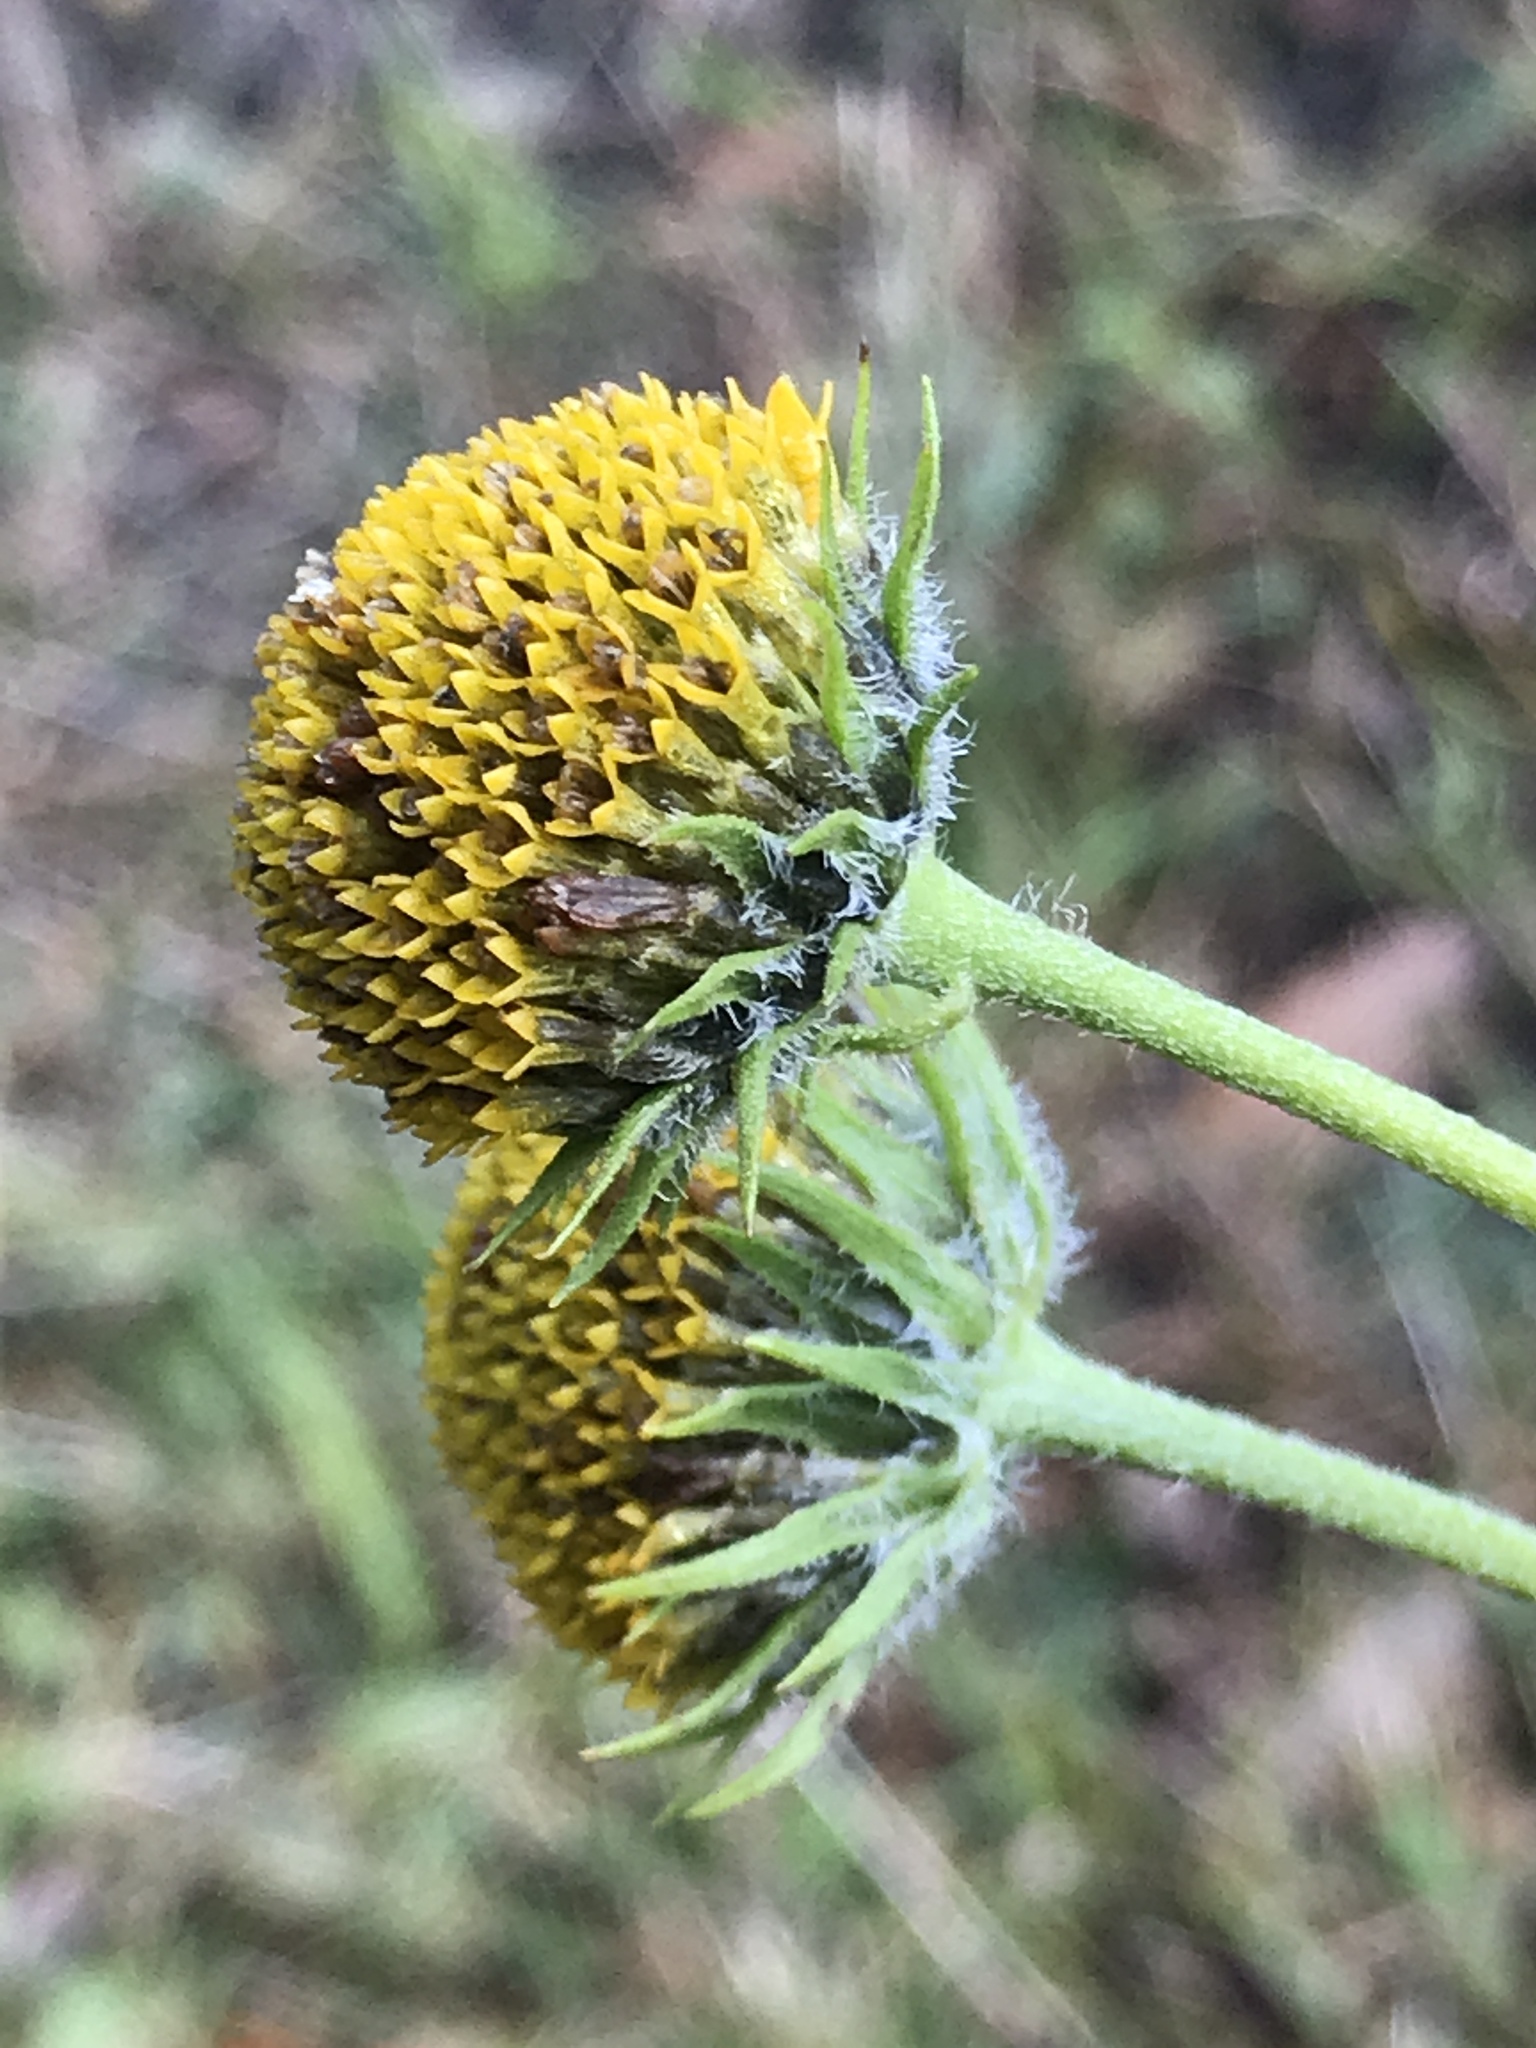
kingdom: Plantae
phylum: Tracheophyta
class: Magnoliopsida
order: Asterales
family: Asteraceae
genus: Helianthus
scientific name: Helianthus grosseserratus
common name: Sawtooth sunflower
